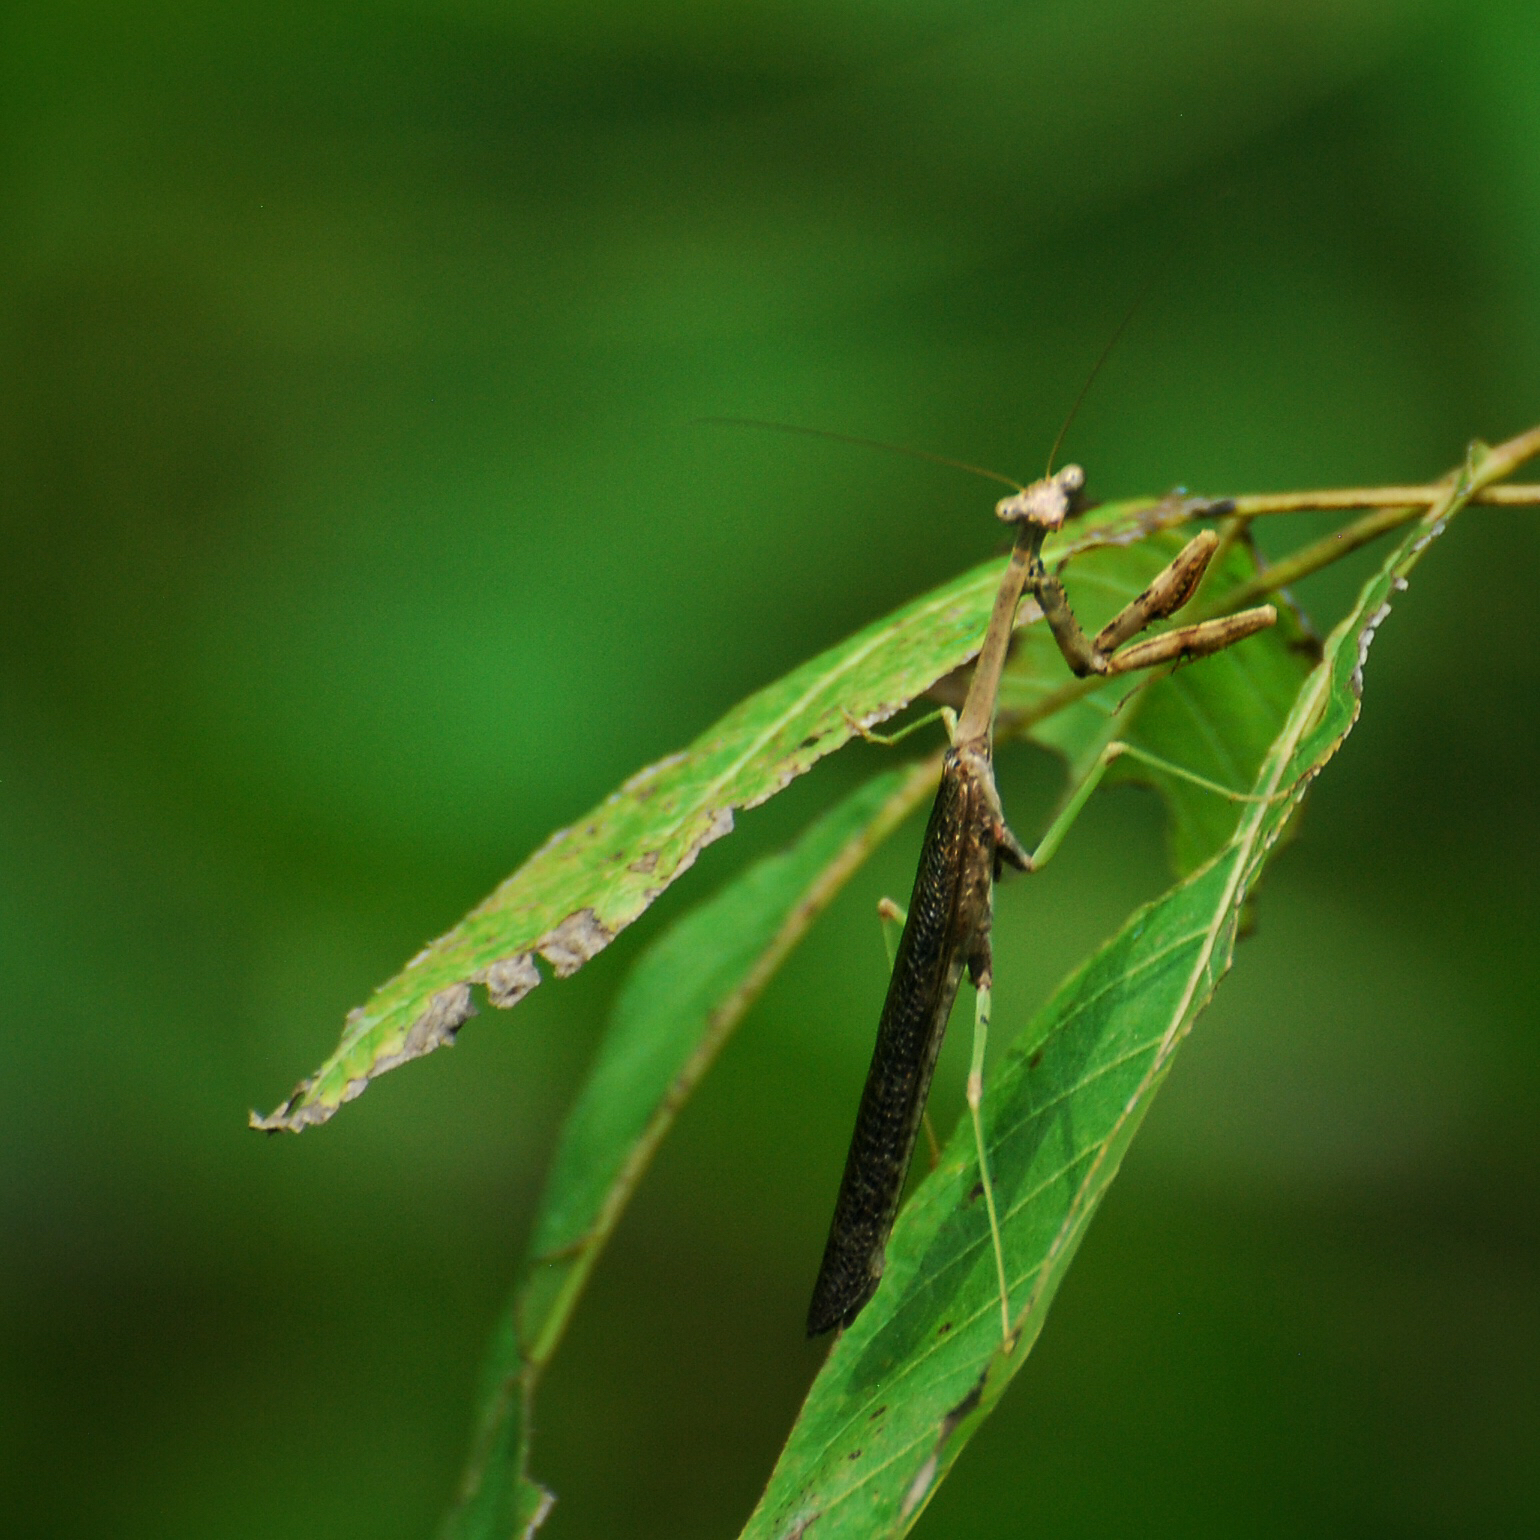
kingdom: Animalia
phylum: Arthropoda
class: Insecta
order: Mantodea
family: Mantidae
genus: Stagmomantis
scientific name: Stagmomantis carolina
